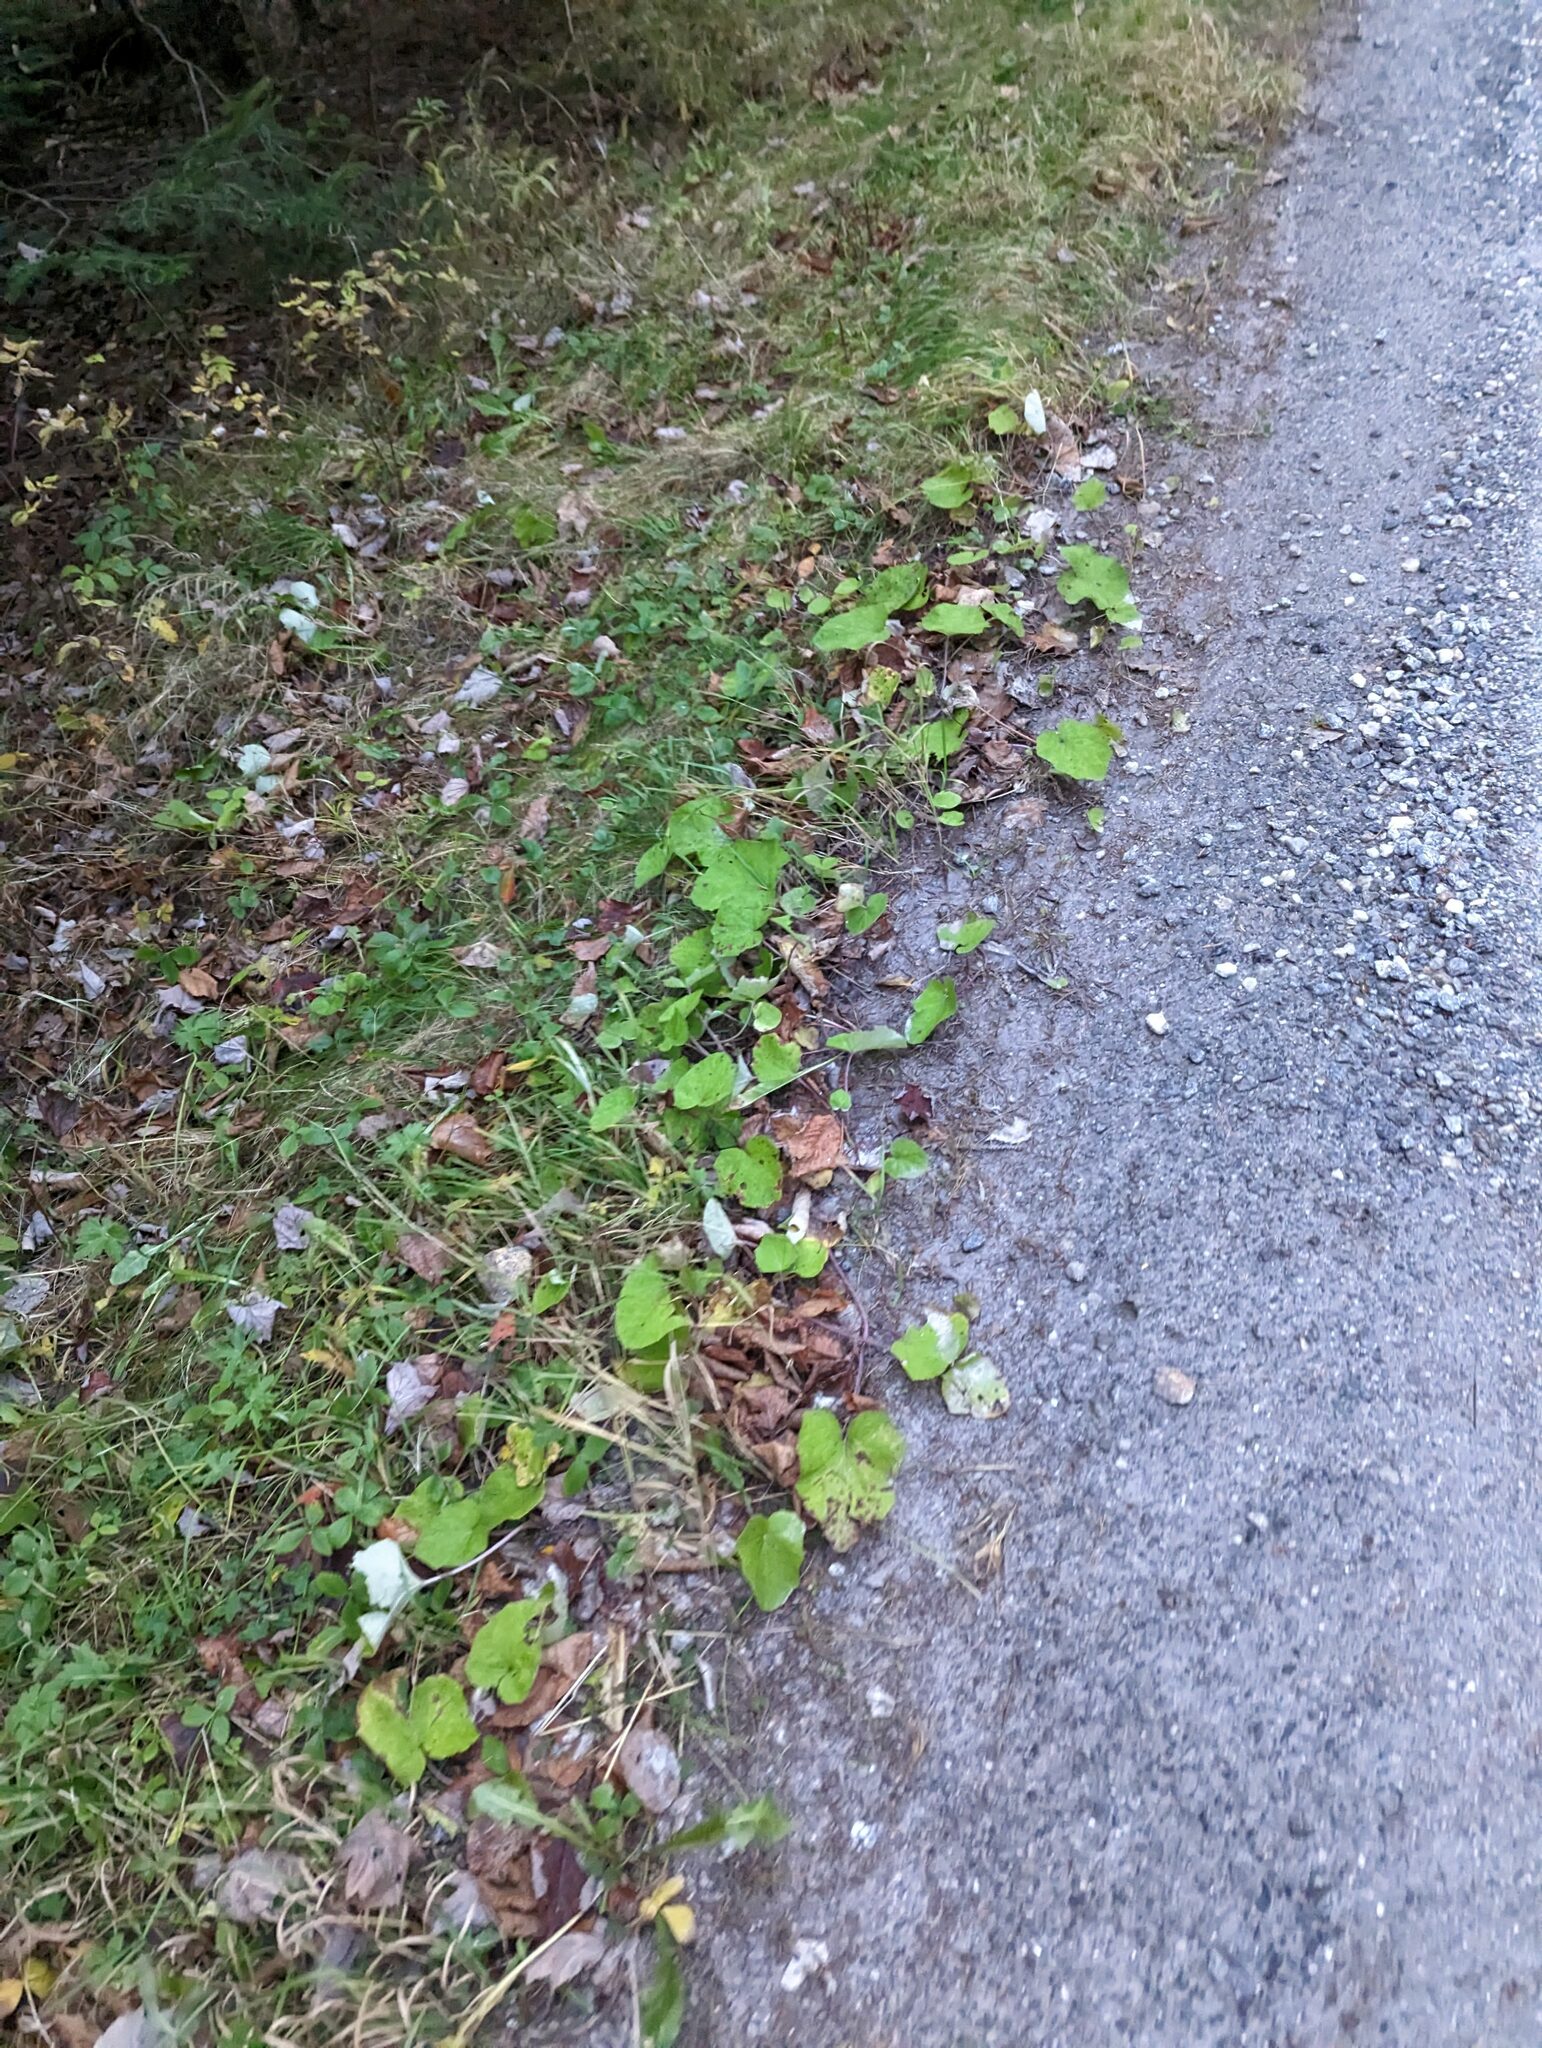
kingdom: Plantae
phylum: Tracheophyta
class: Magnoliopsida
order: Asterales
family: Asteraceae
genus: Tussilago
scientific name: Tussilago farfara
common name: Coltsfoot
